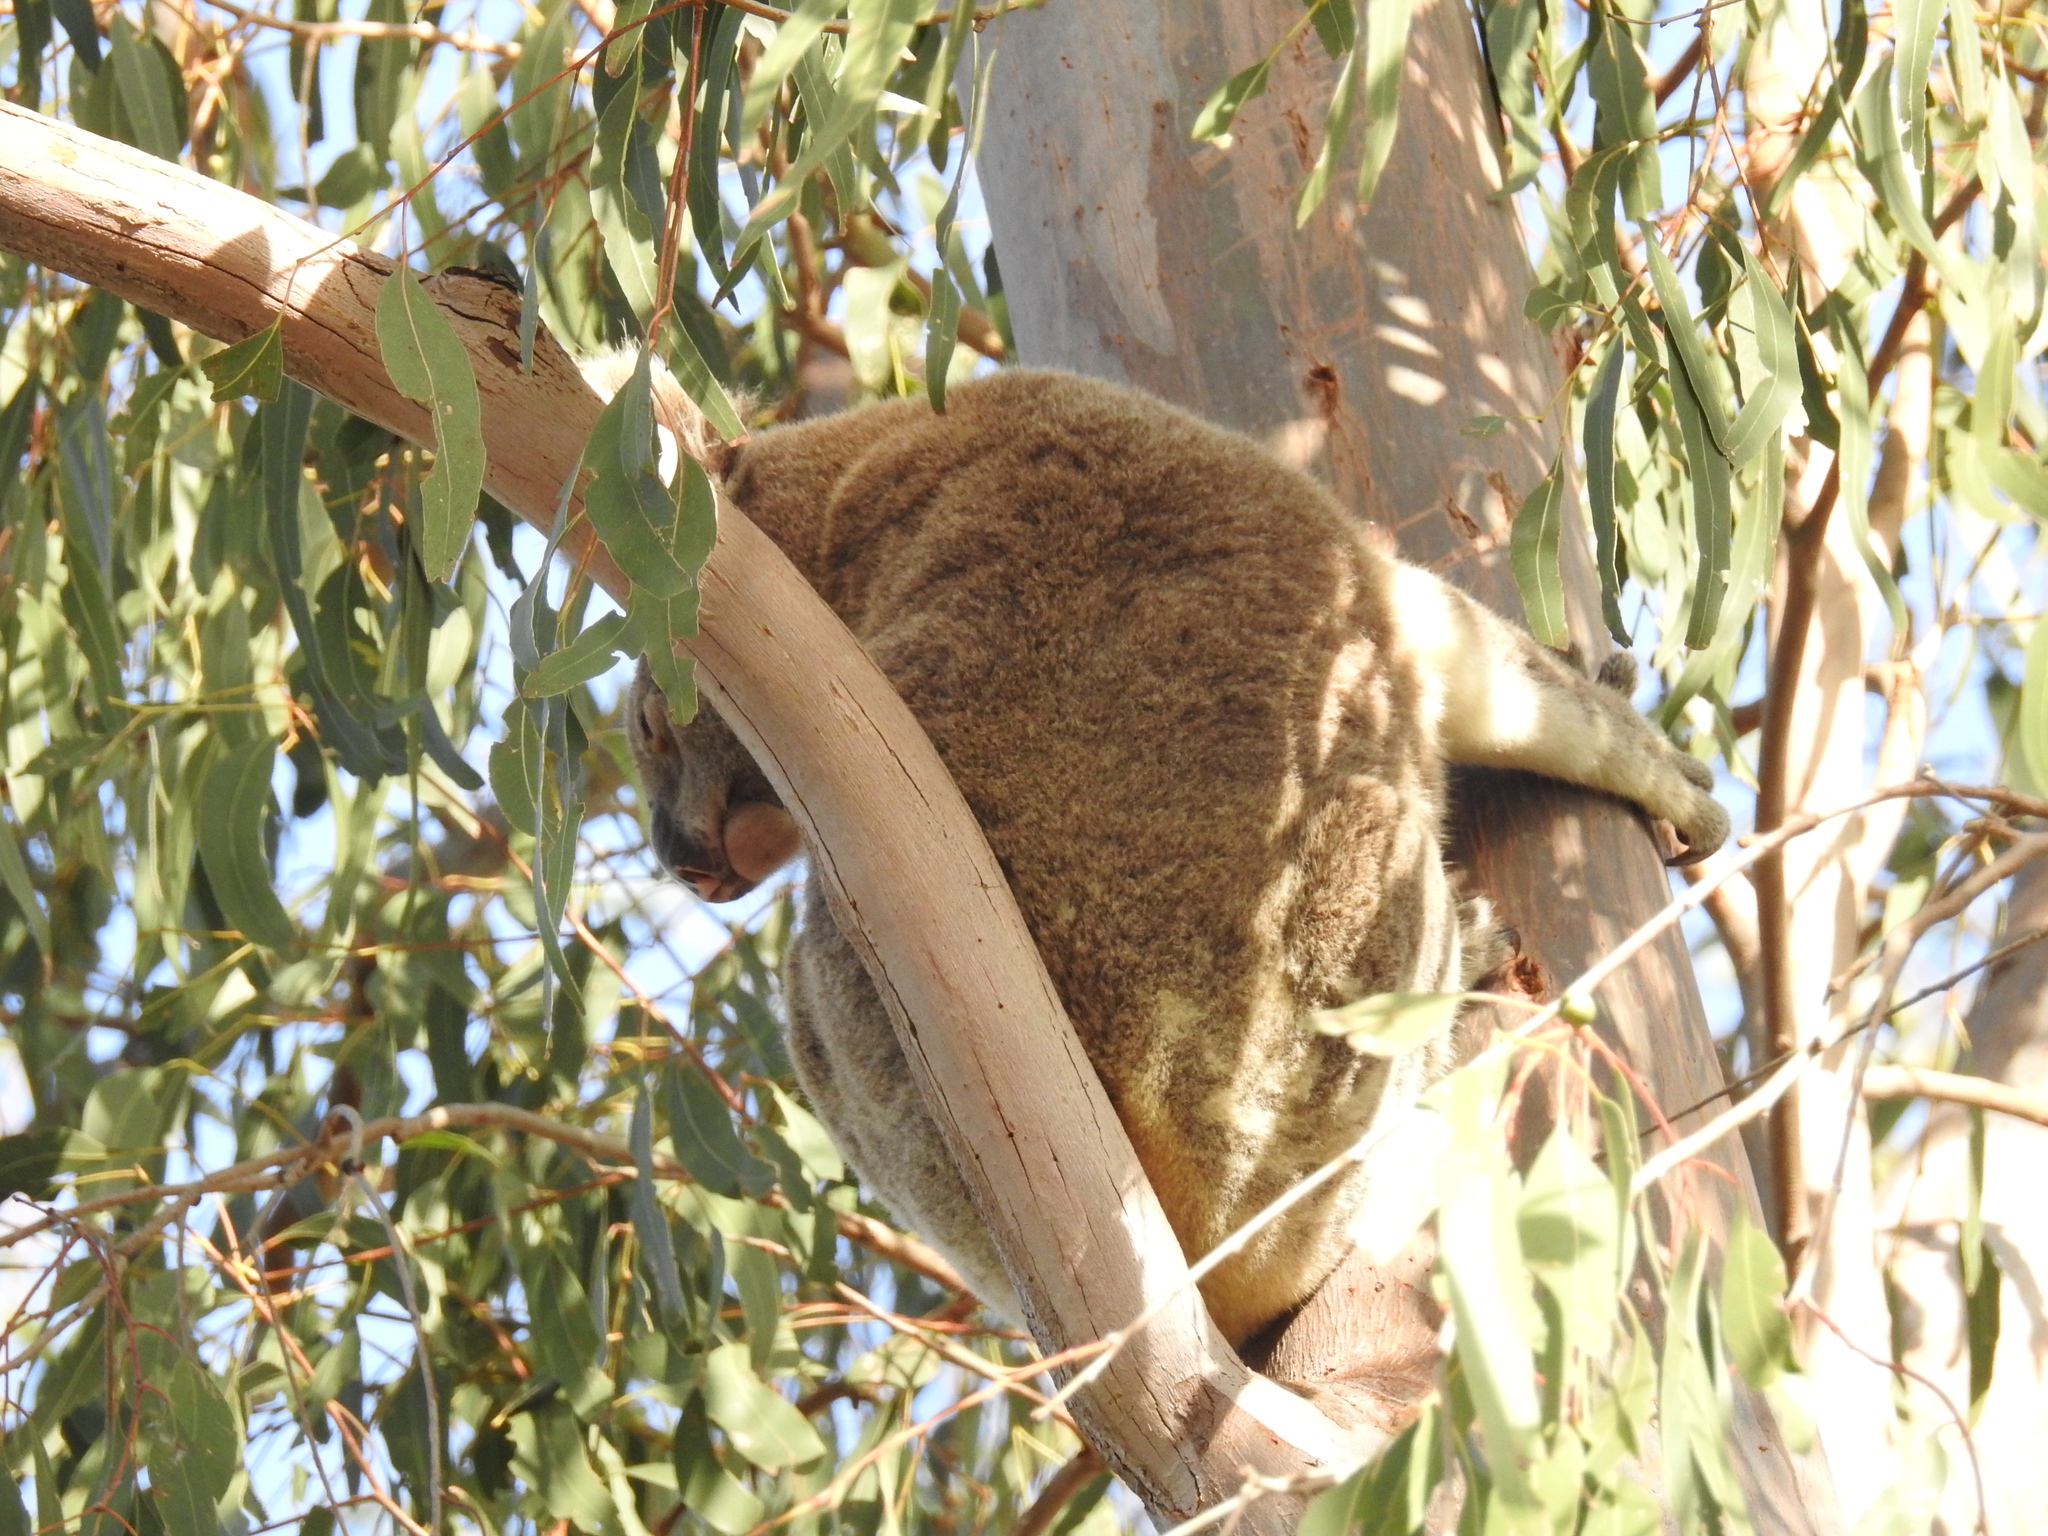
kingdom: Animalia
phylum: Chordata
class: Mammalia
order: Diprotodontia
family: Phascolarctidae
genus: Phascolarctos
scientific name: Phascolarctos cinereus
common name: Koala
